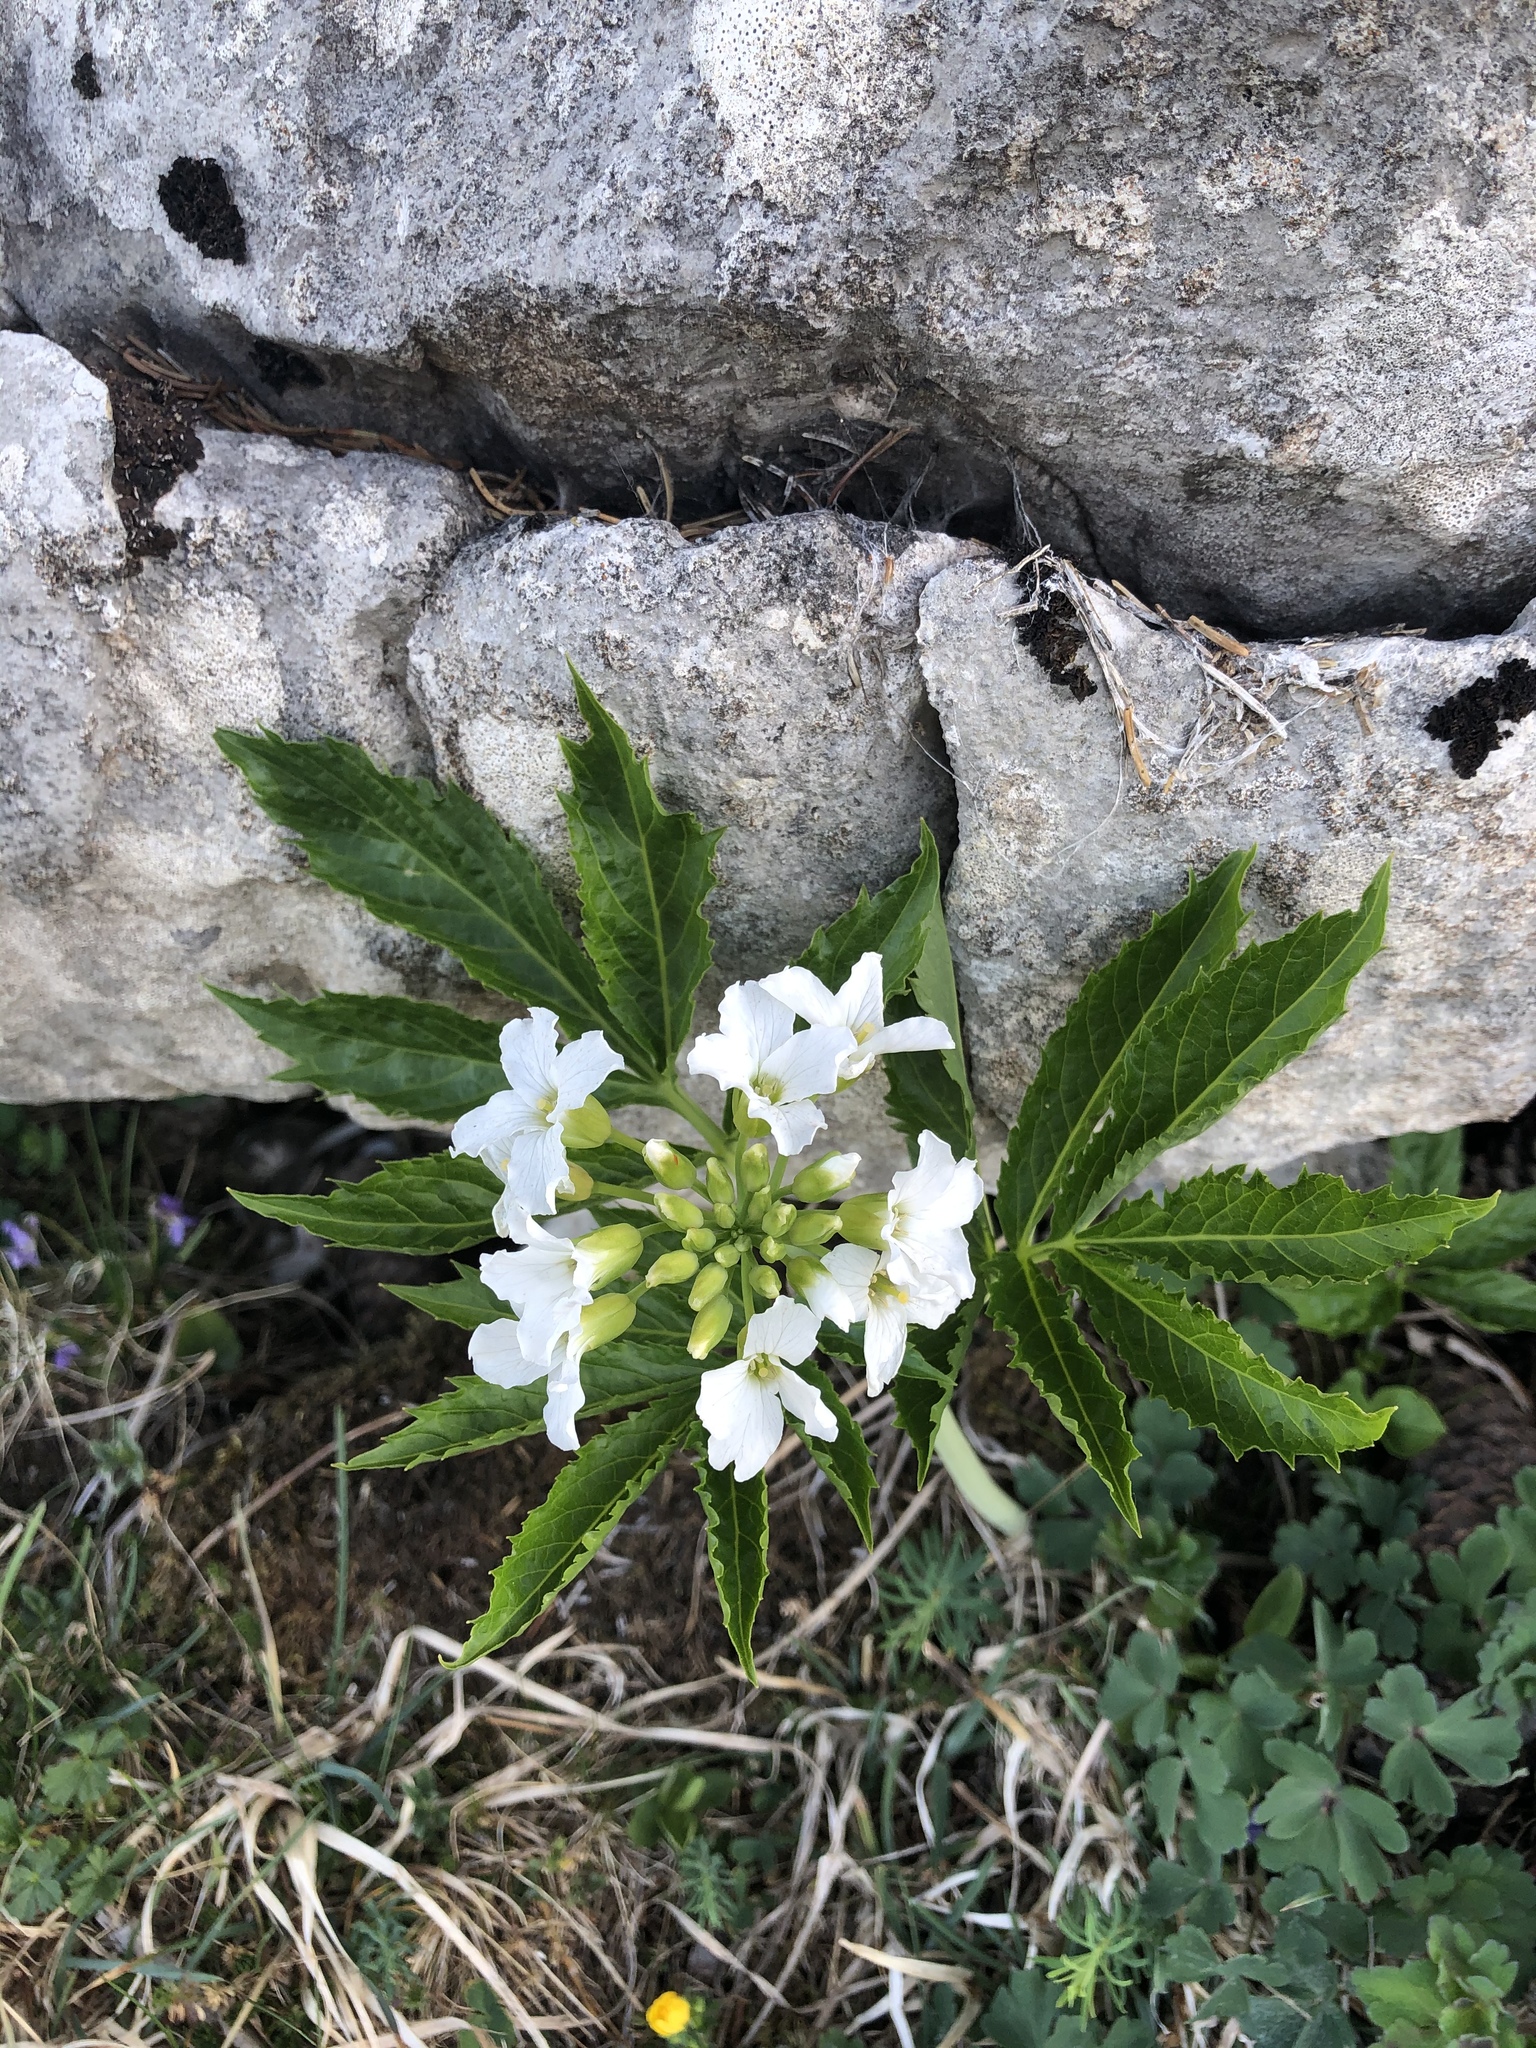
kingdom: Plantae
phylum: Tracheophyta
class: Magnoliopsida
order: Brassicales
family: Brassicaceae
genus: Cardamine
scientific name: Cardamine heptaphylla
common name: Pinnate coralroot
